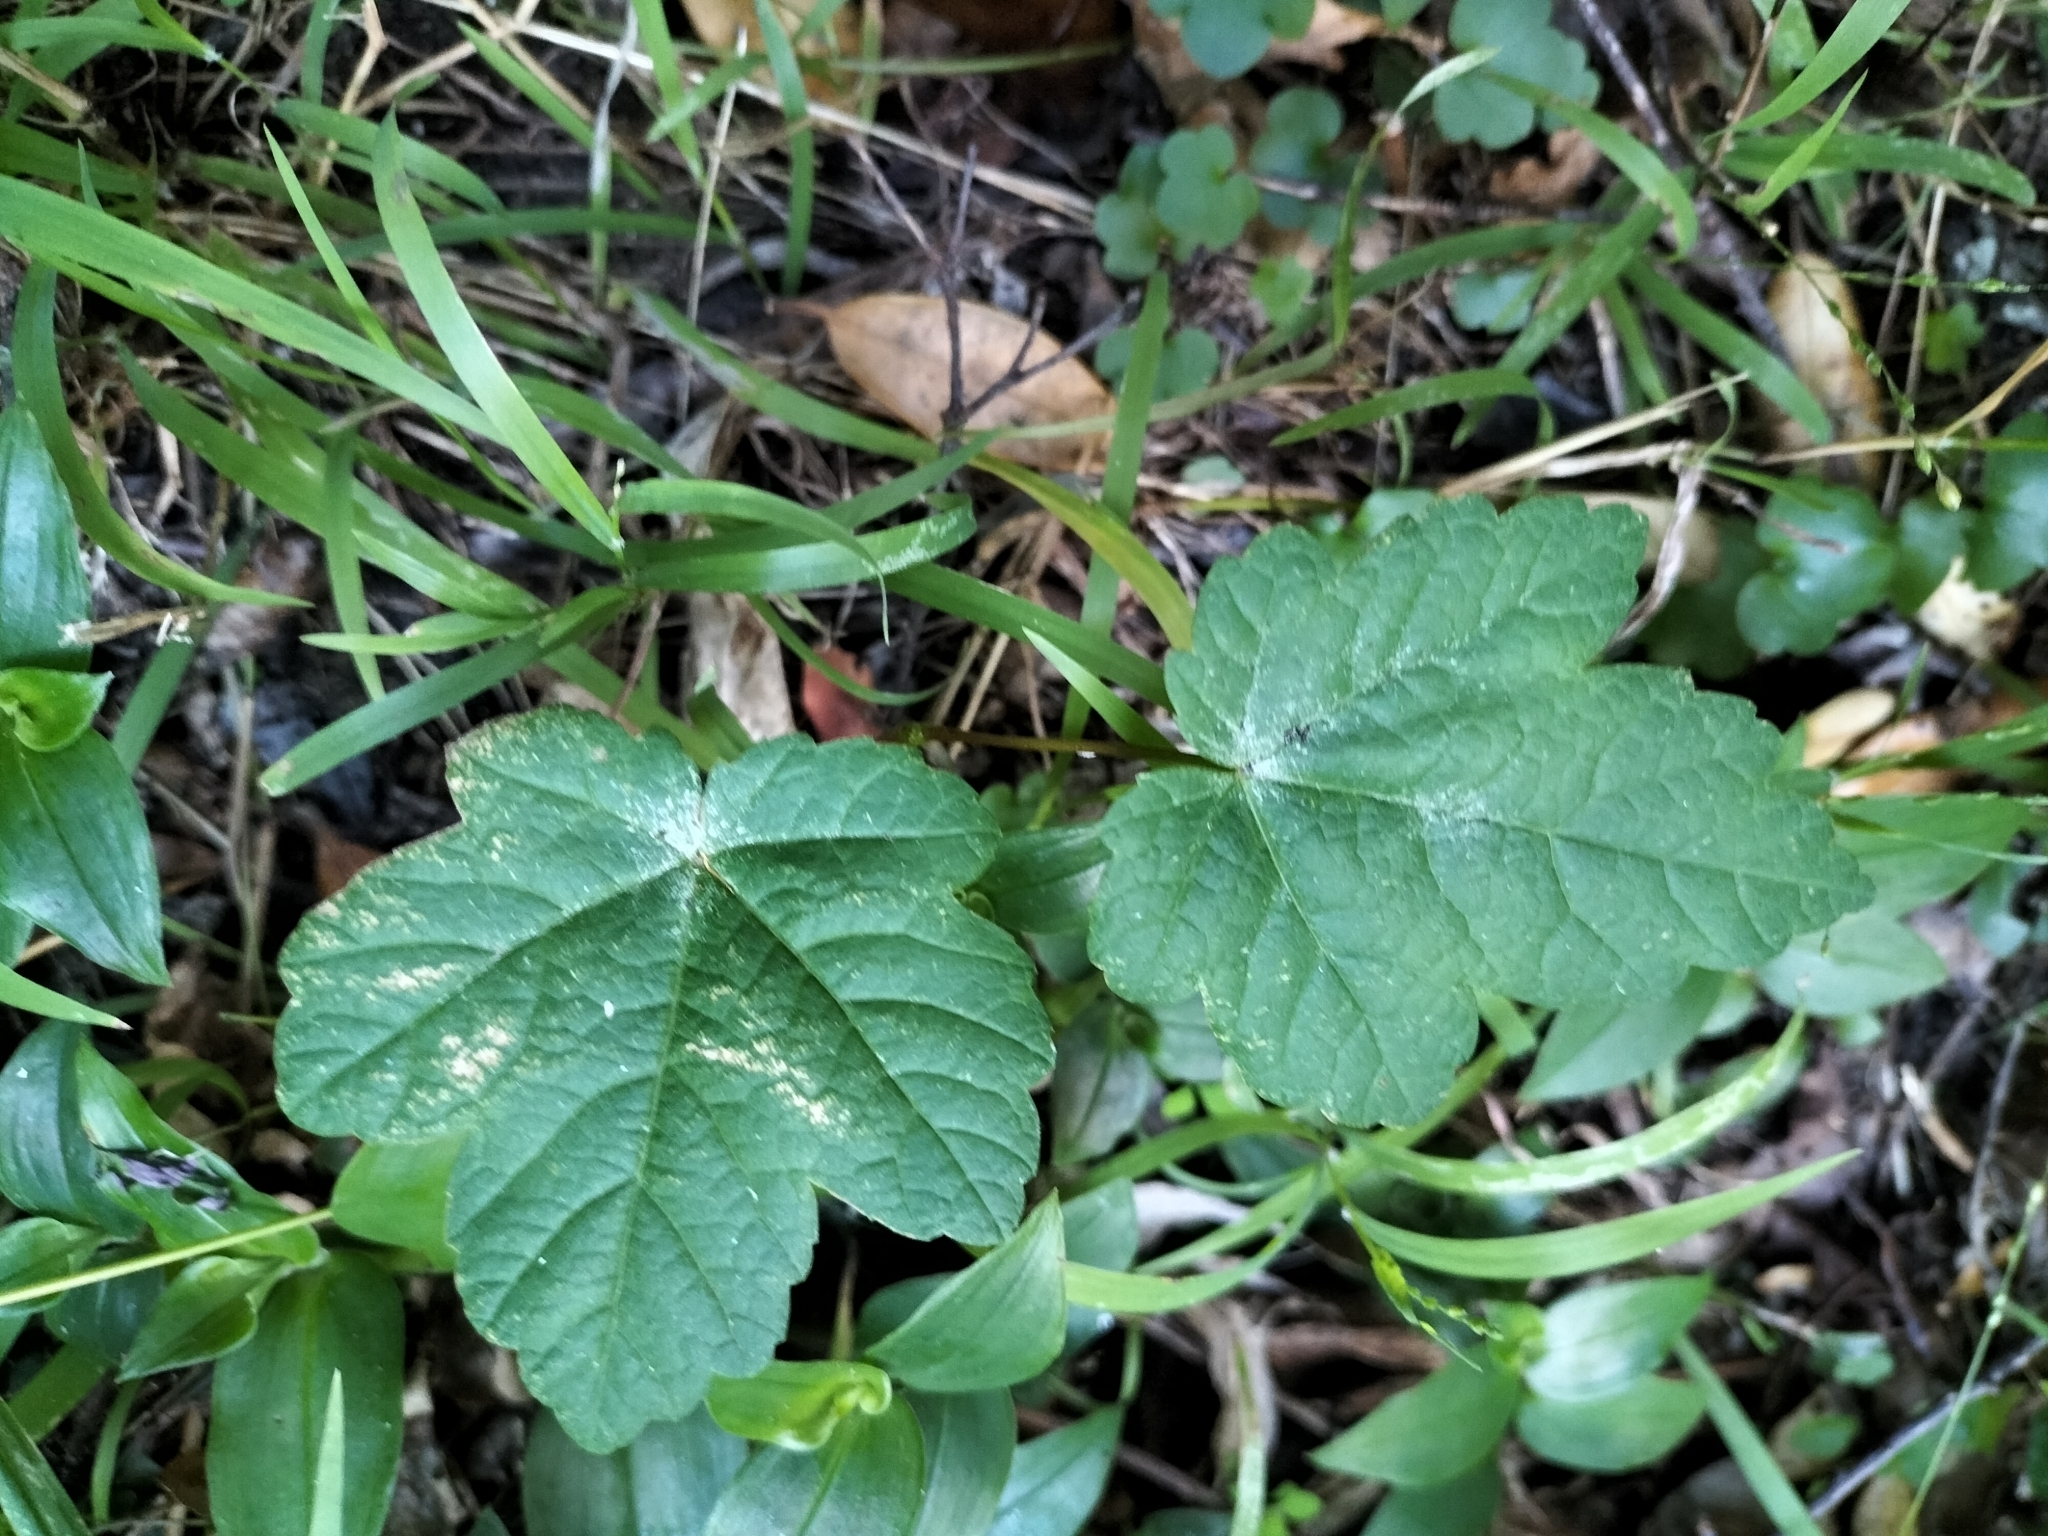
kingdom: Plantae
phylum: Tracheophyta
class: Magnoliopsida
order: Sapindales
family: Sapindaceae
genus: Acer
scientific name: Acer pseudoplatanus
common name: Sycamore
